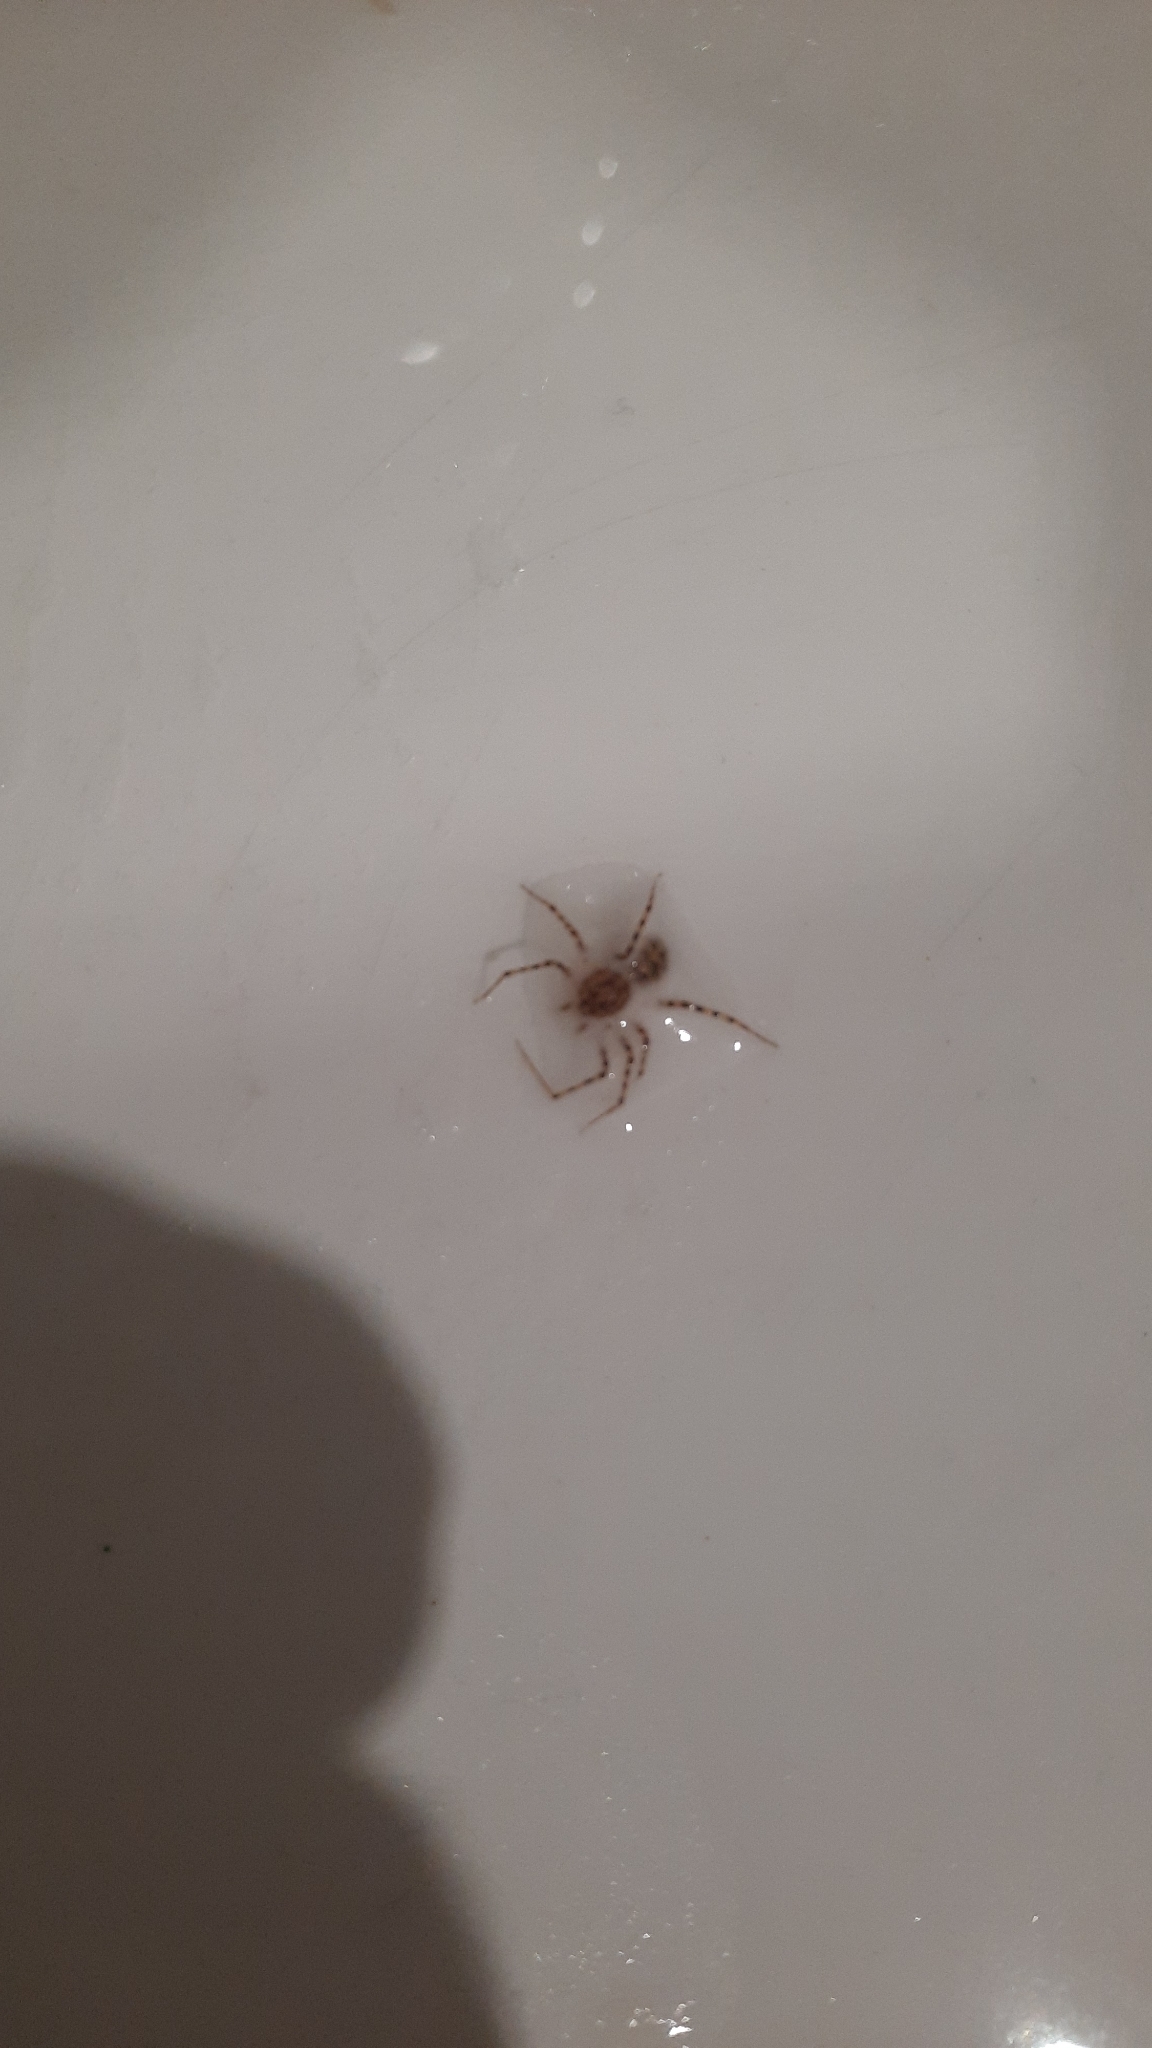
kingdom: Animalia
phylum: Arthropoda
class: Arachnida
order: Araneae
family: Scytodidae
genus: Scytodes
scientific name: Scytodes thoracica
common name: Spitting spider
